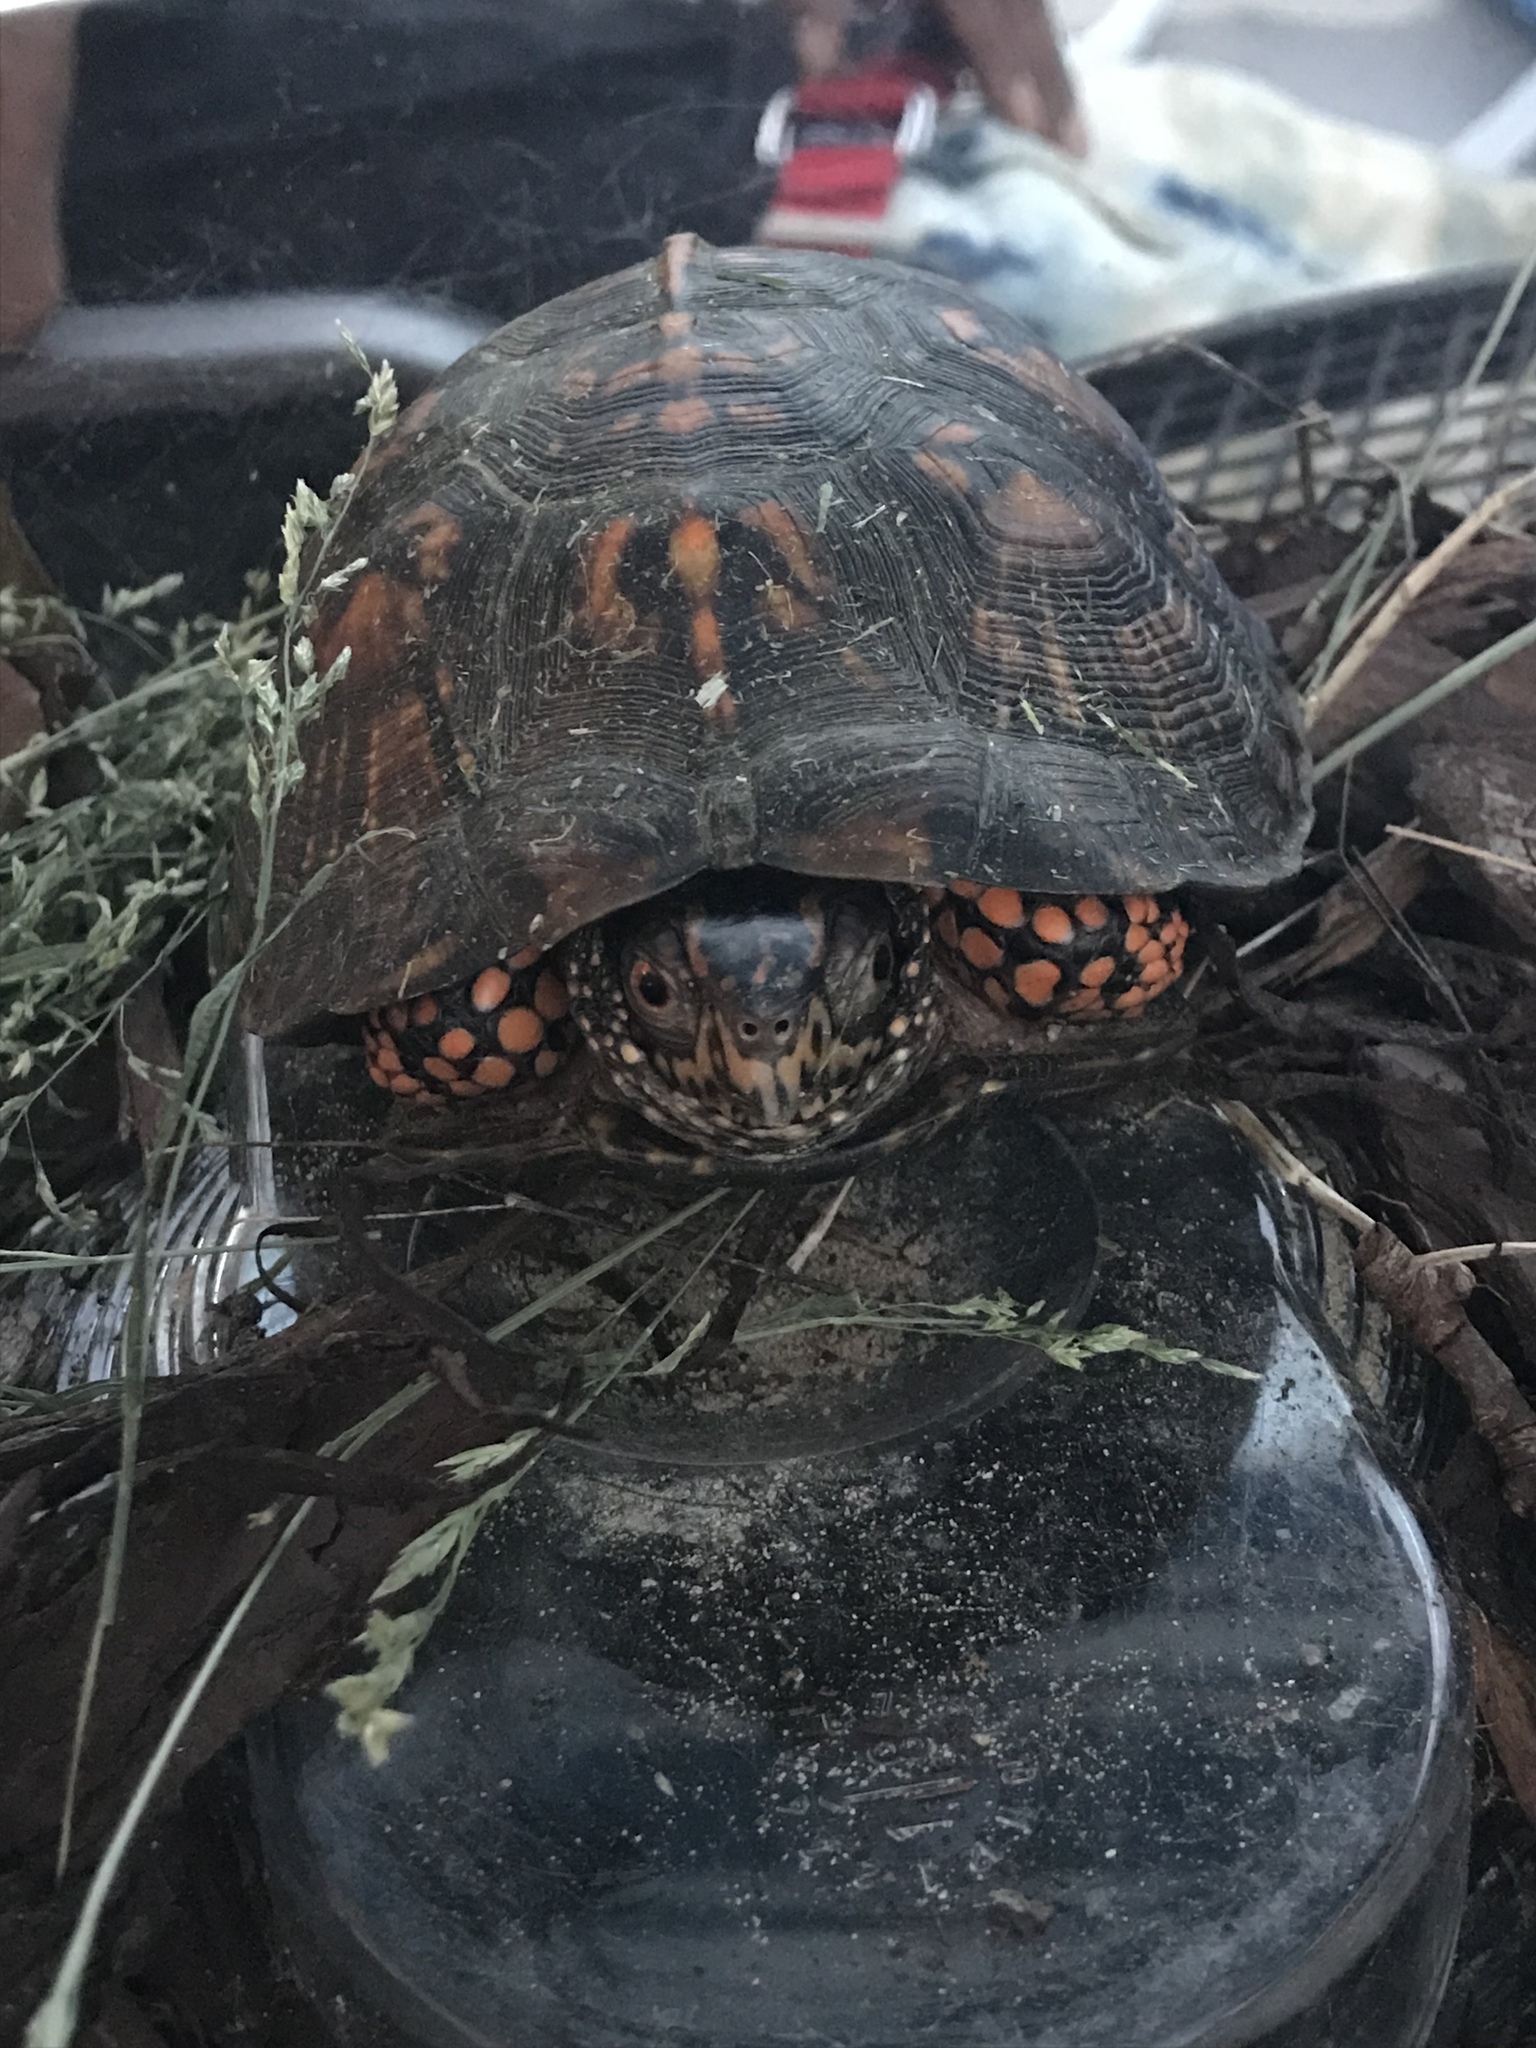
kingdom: Animalia
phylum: Chordata
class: Testudines
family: Emydidae
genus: Terrapene
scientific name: Terrapene carolina
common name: Common box turtle
